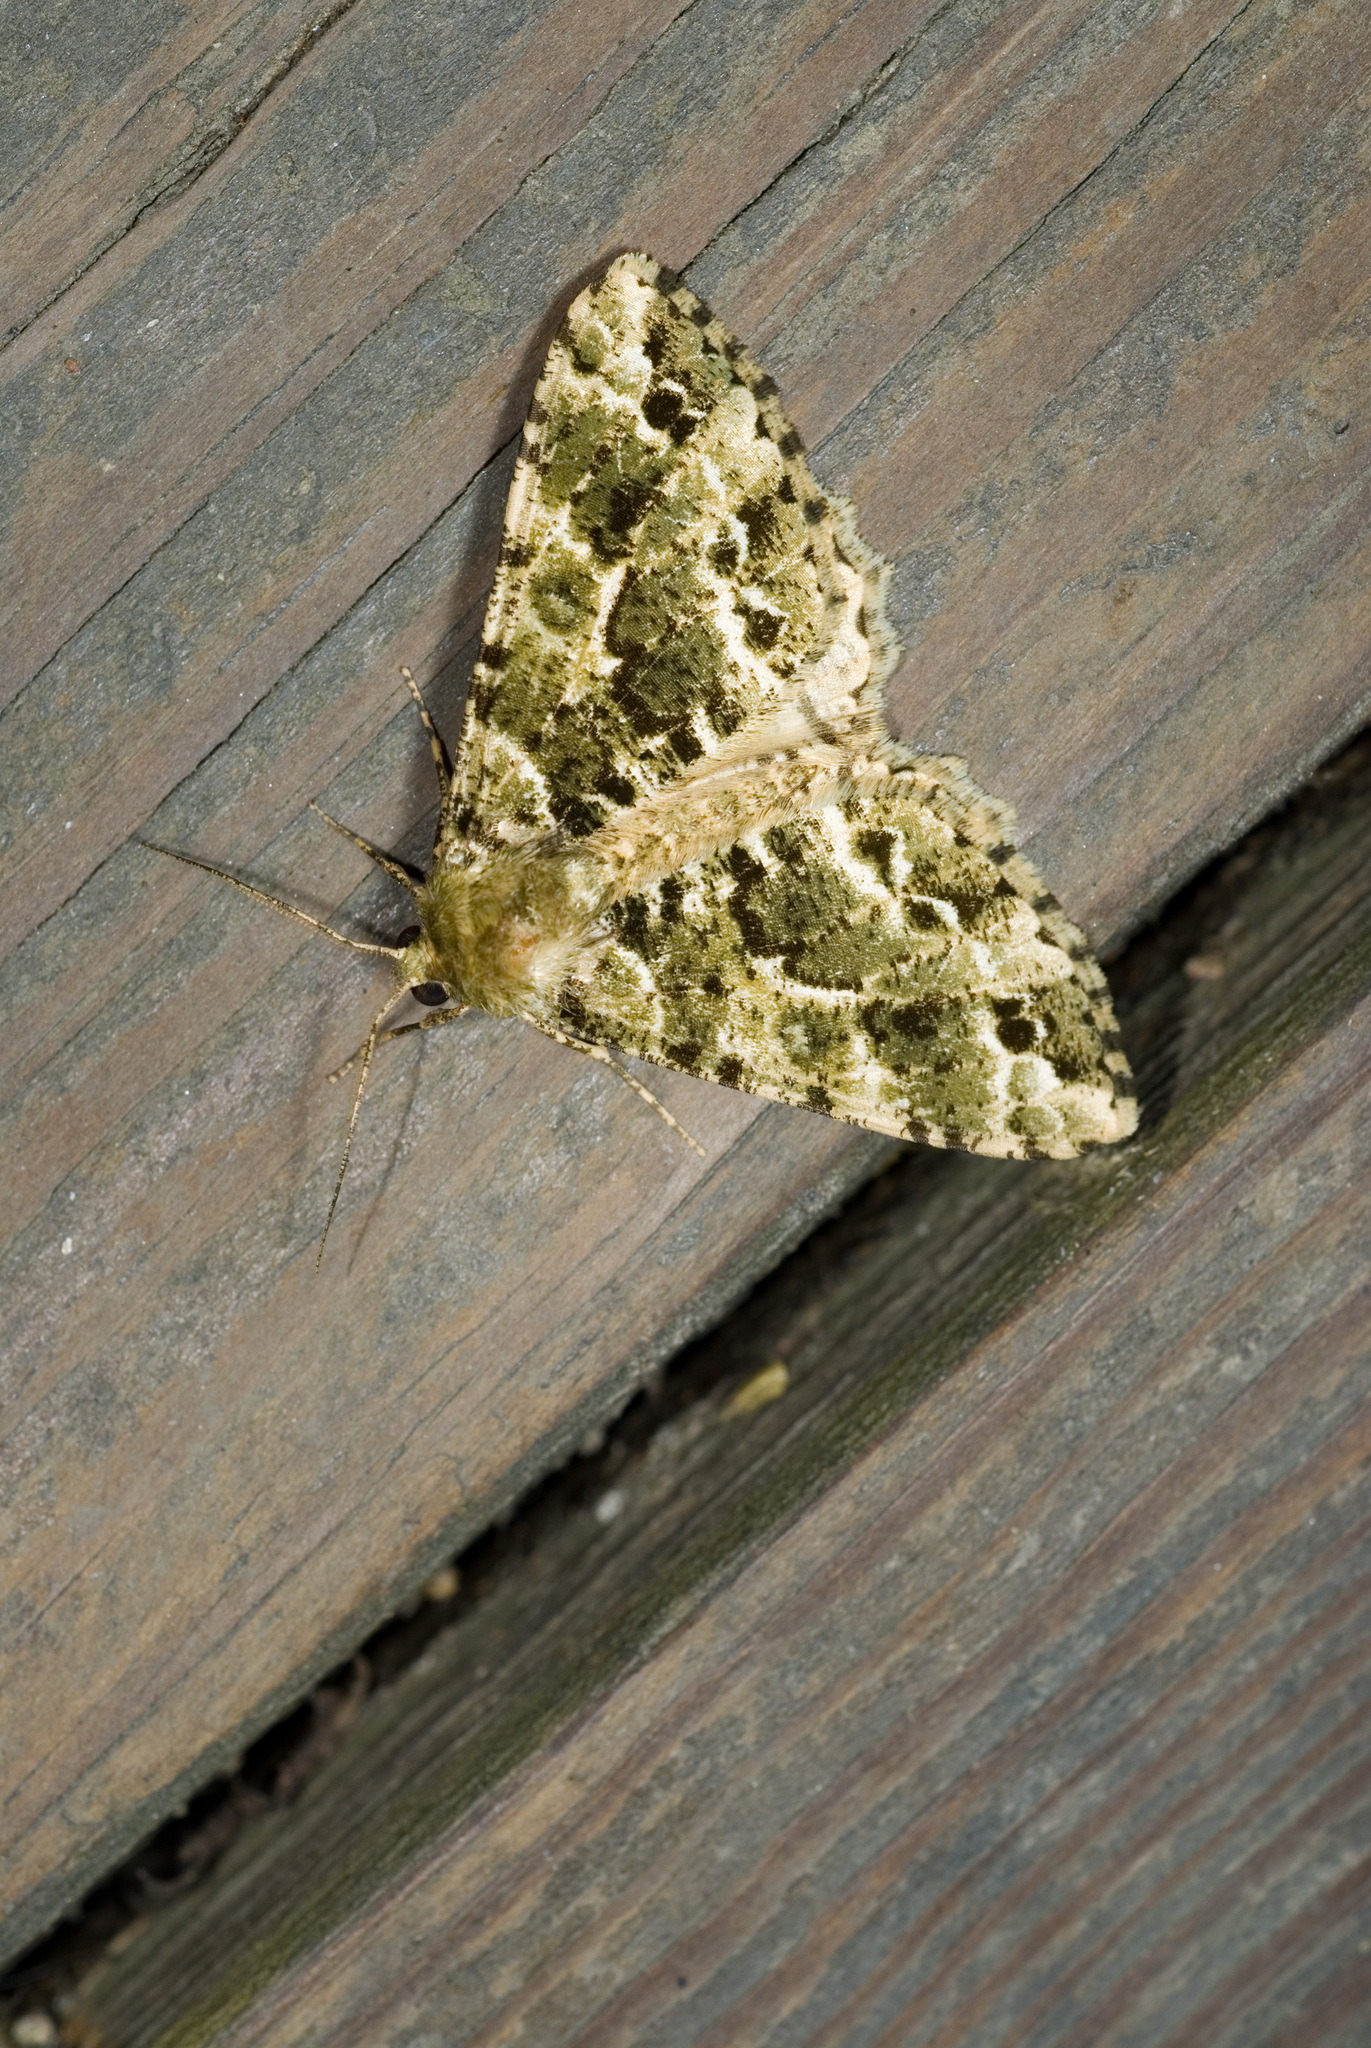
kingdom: Animalia
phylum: Arthropoda
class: Insecta
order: Lepidoptera
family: Geometridae
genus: Arichanna
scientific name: Arichanna marginata
